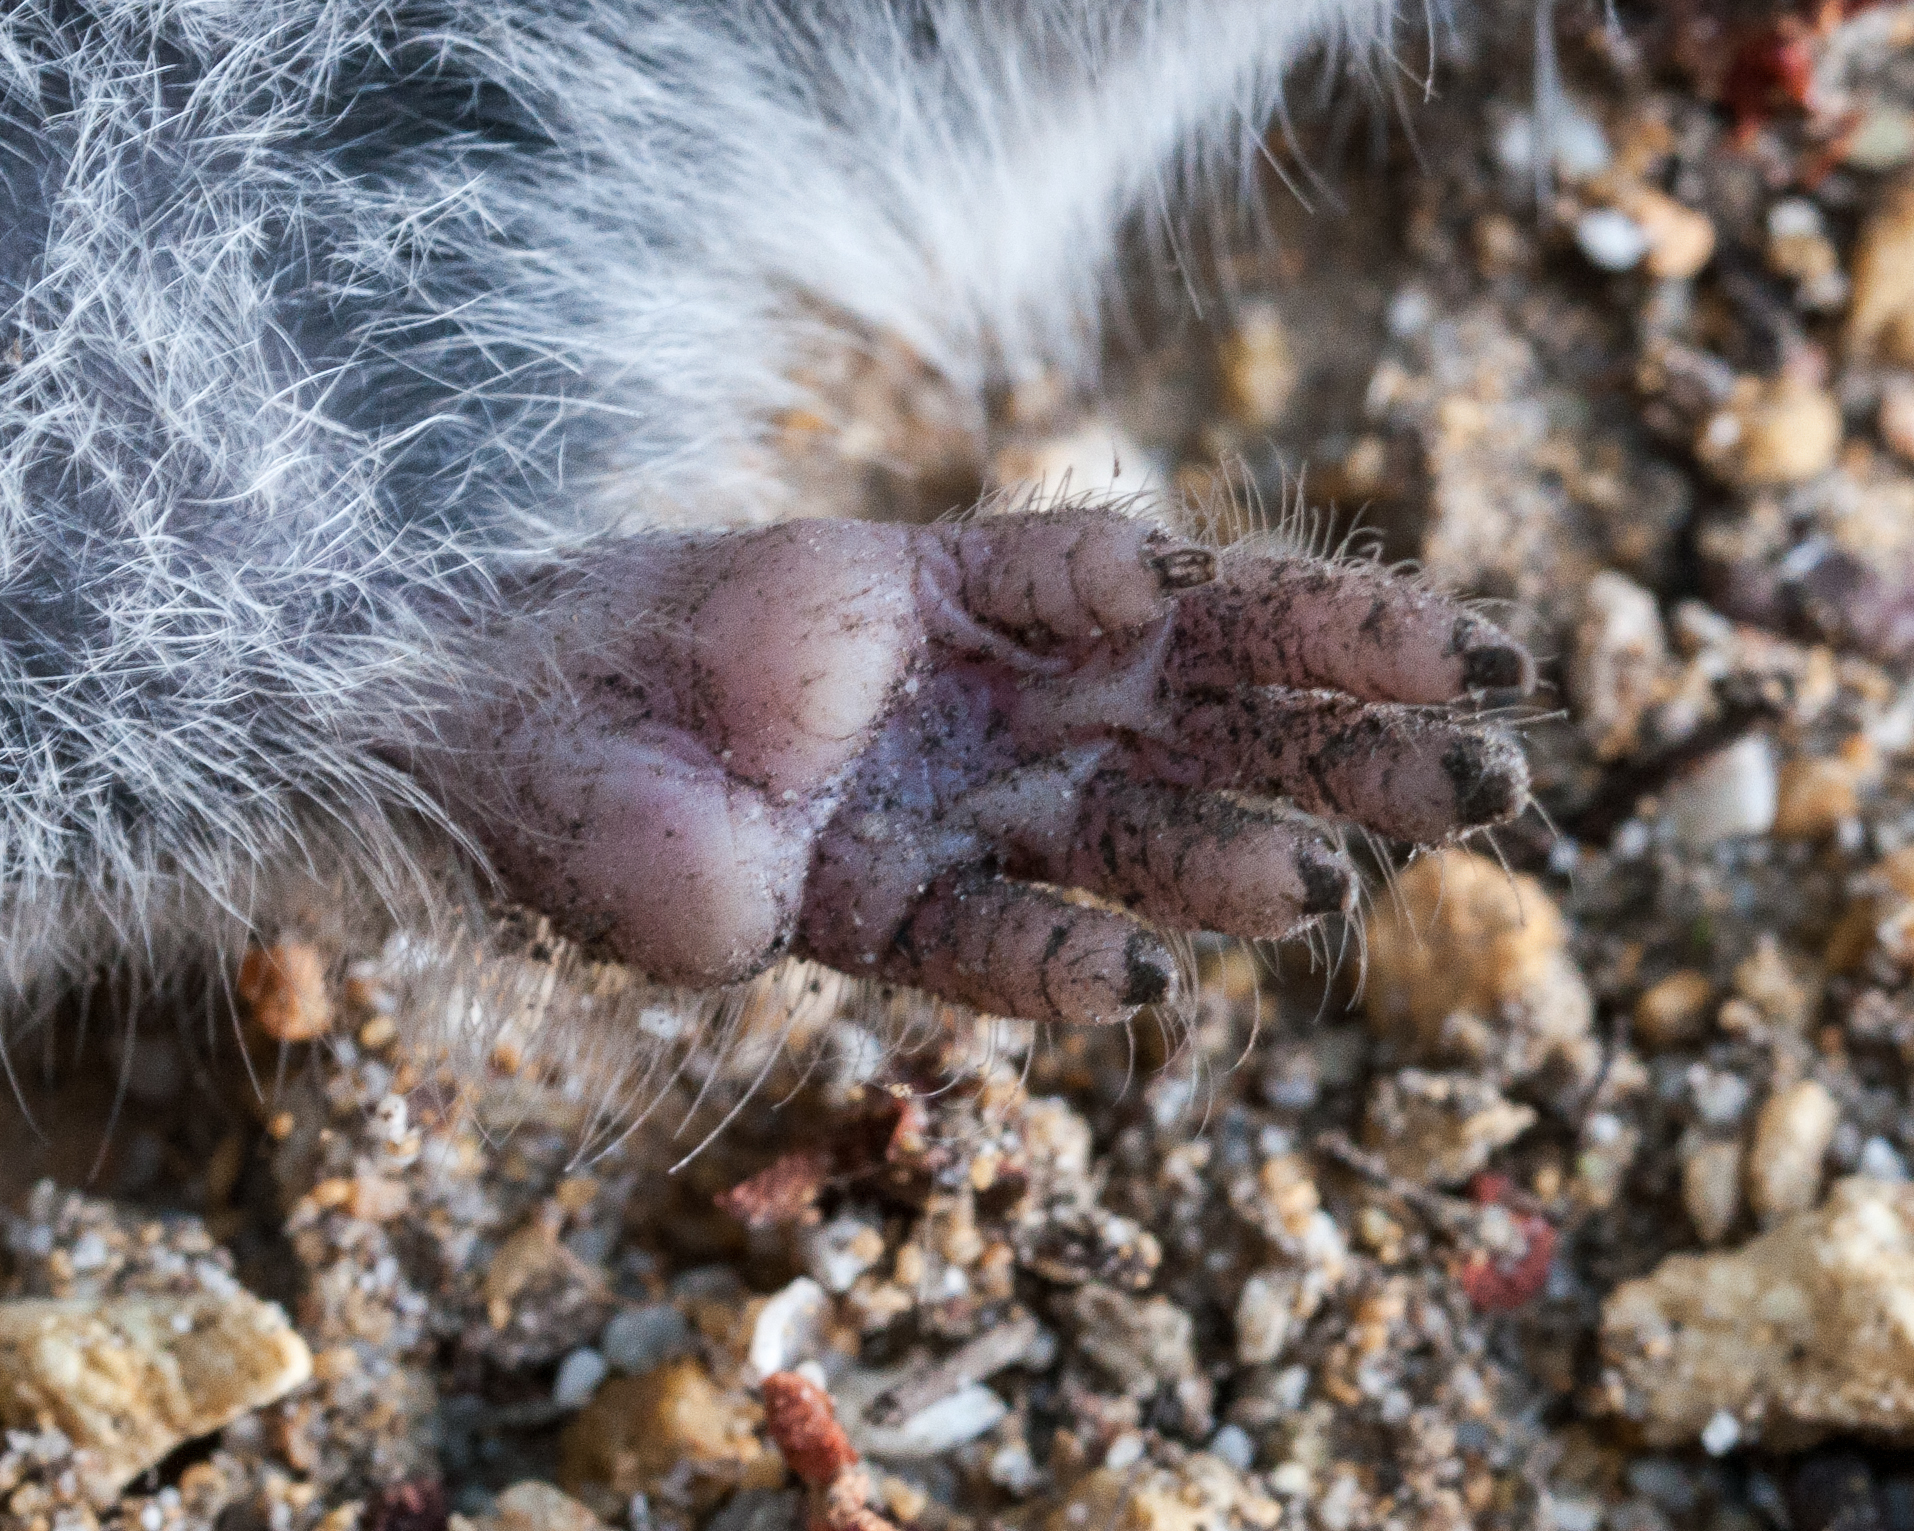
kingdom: Animalia
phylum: Chordata
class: Mammalia
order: Rodentia
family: Bathyergidae
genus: Georychus
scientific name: Georychus capensis
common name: Cape mole-rat
